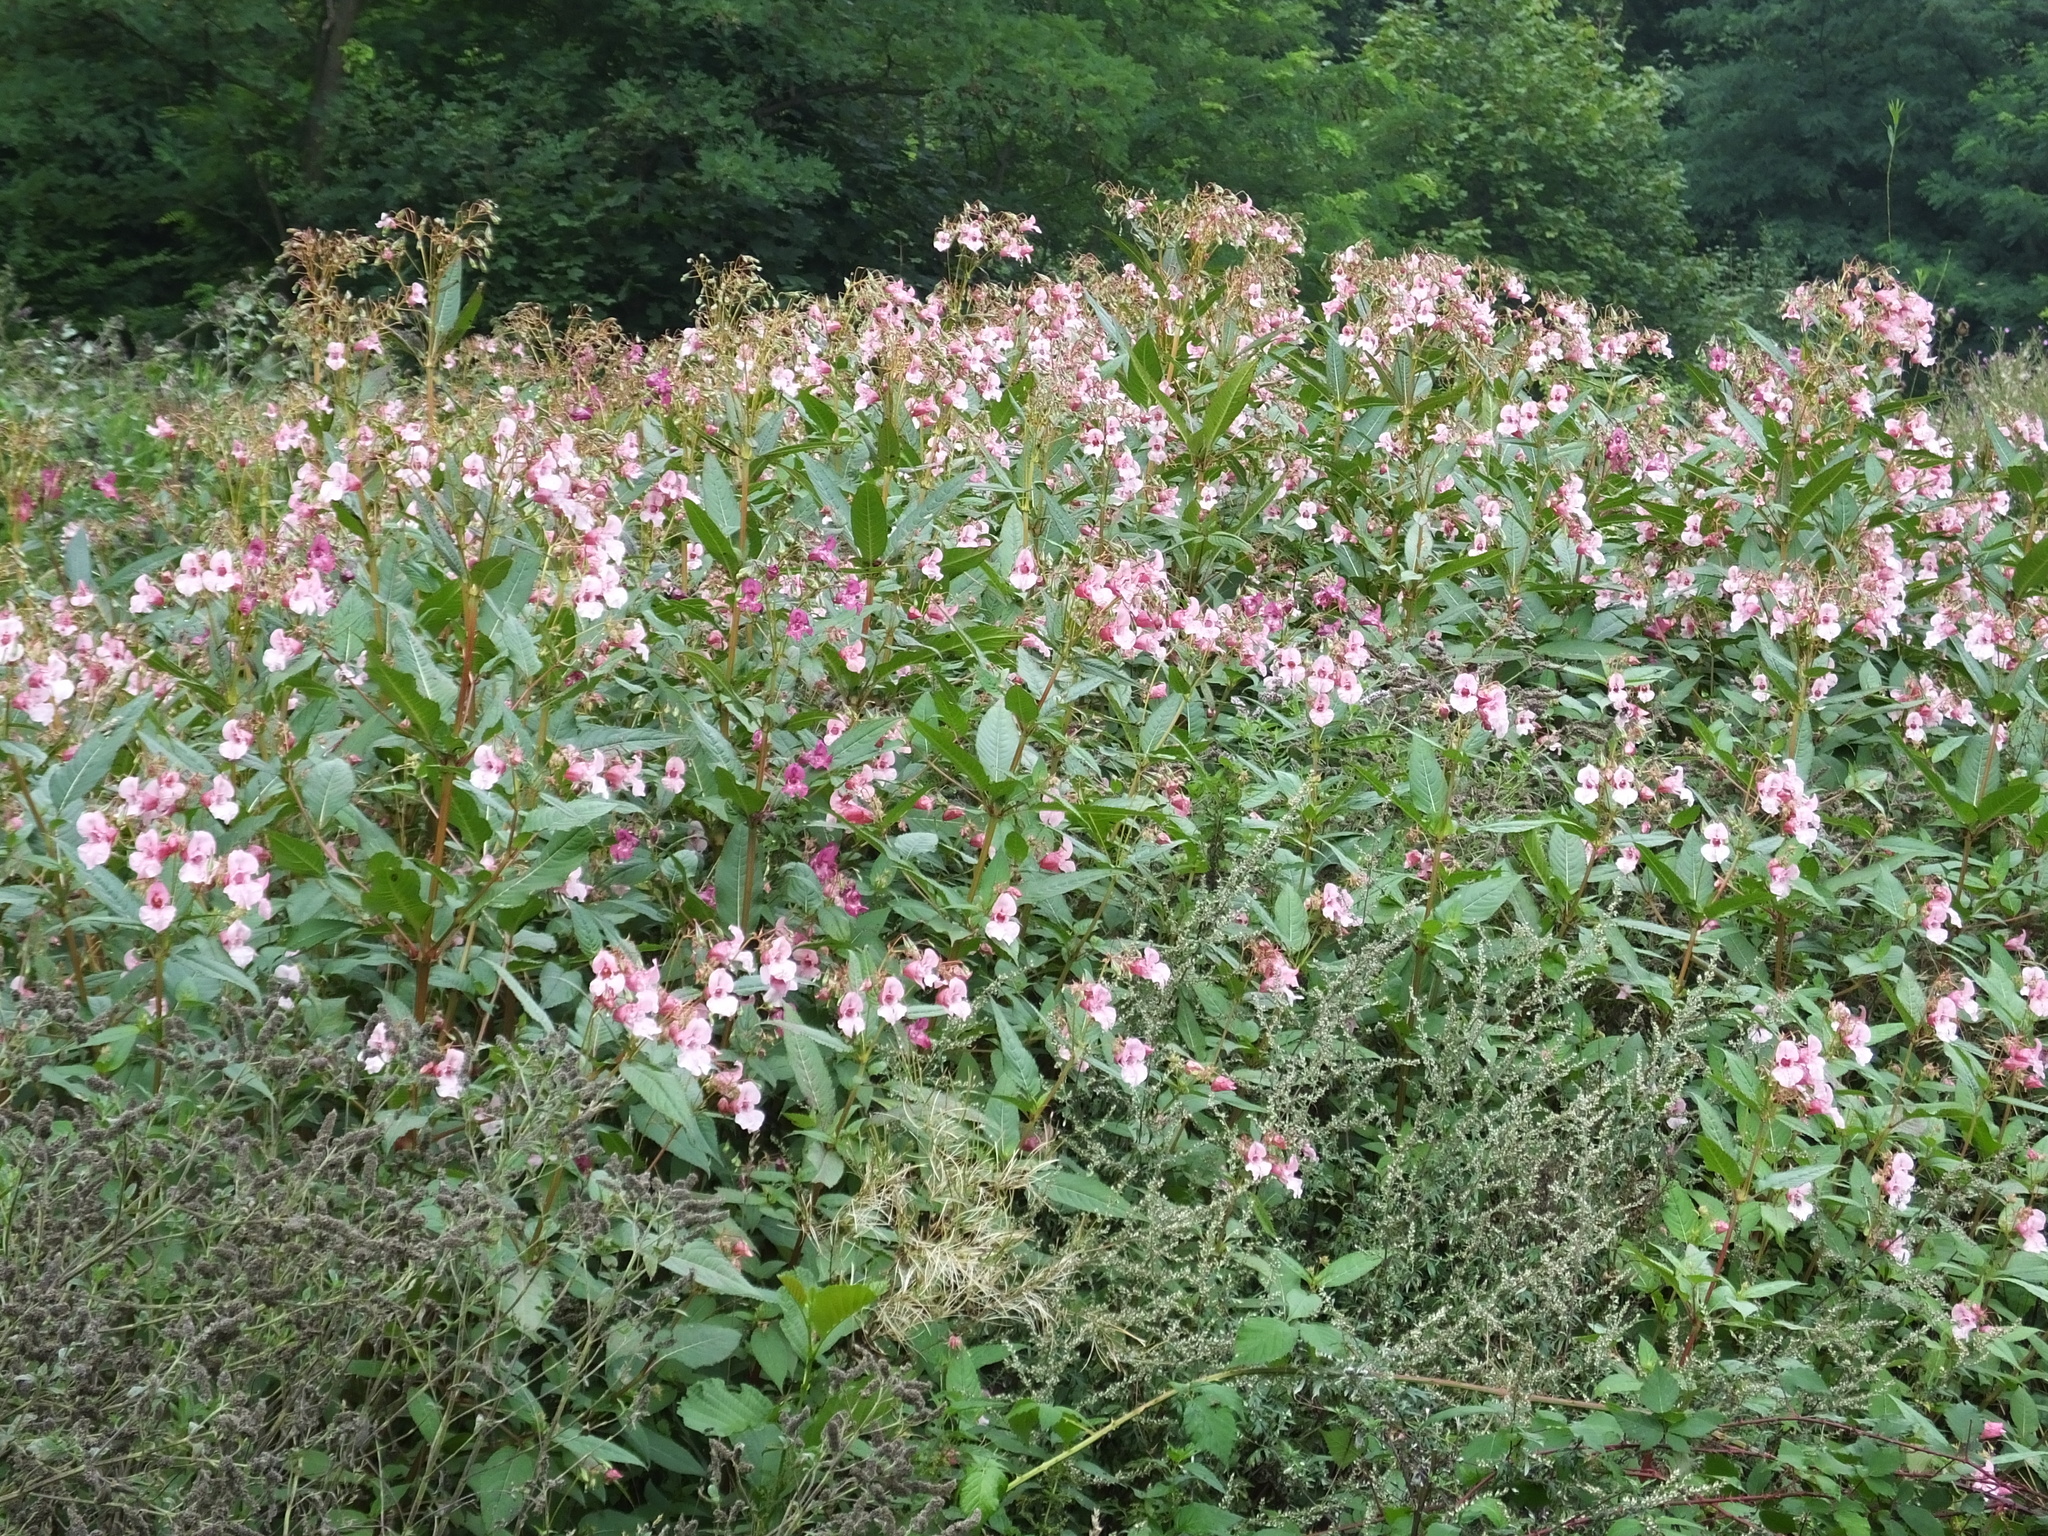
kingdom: Plantae
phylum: Tracheophyta
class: Magnoliopsida
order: Ericales
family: Balsaminaceae
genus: Impatiens
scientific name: Impatiens glandulifera
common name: Himalayan balsam
